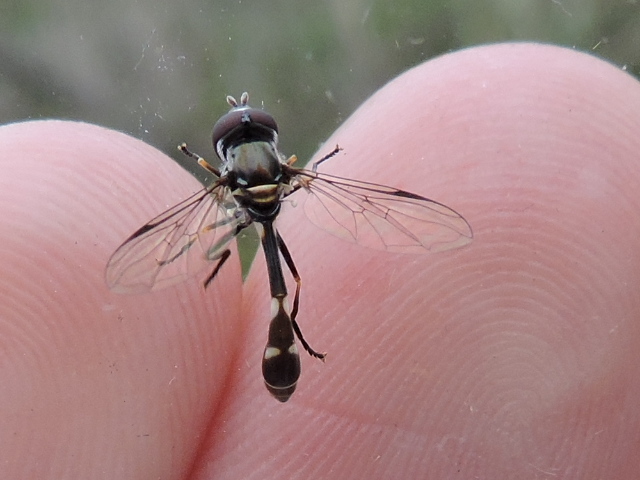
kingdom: Animalia
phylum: Arthropoda
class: Insecta
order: Diptera
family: Syrphidae
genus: Dioprosopa
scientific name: Dioprosopa clavatus
